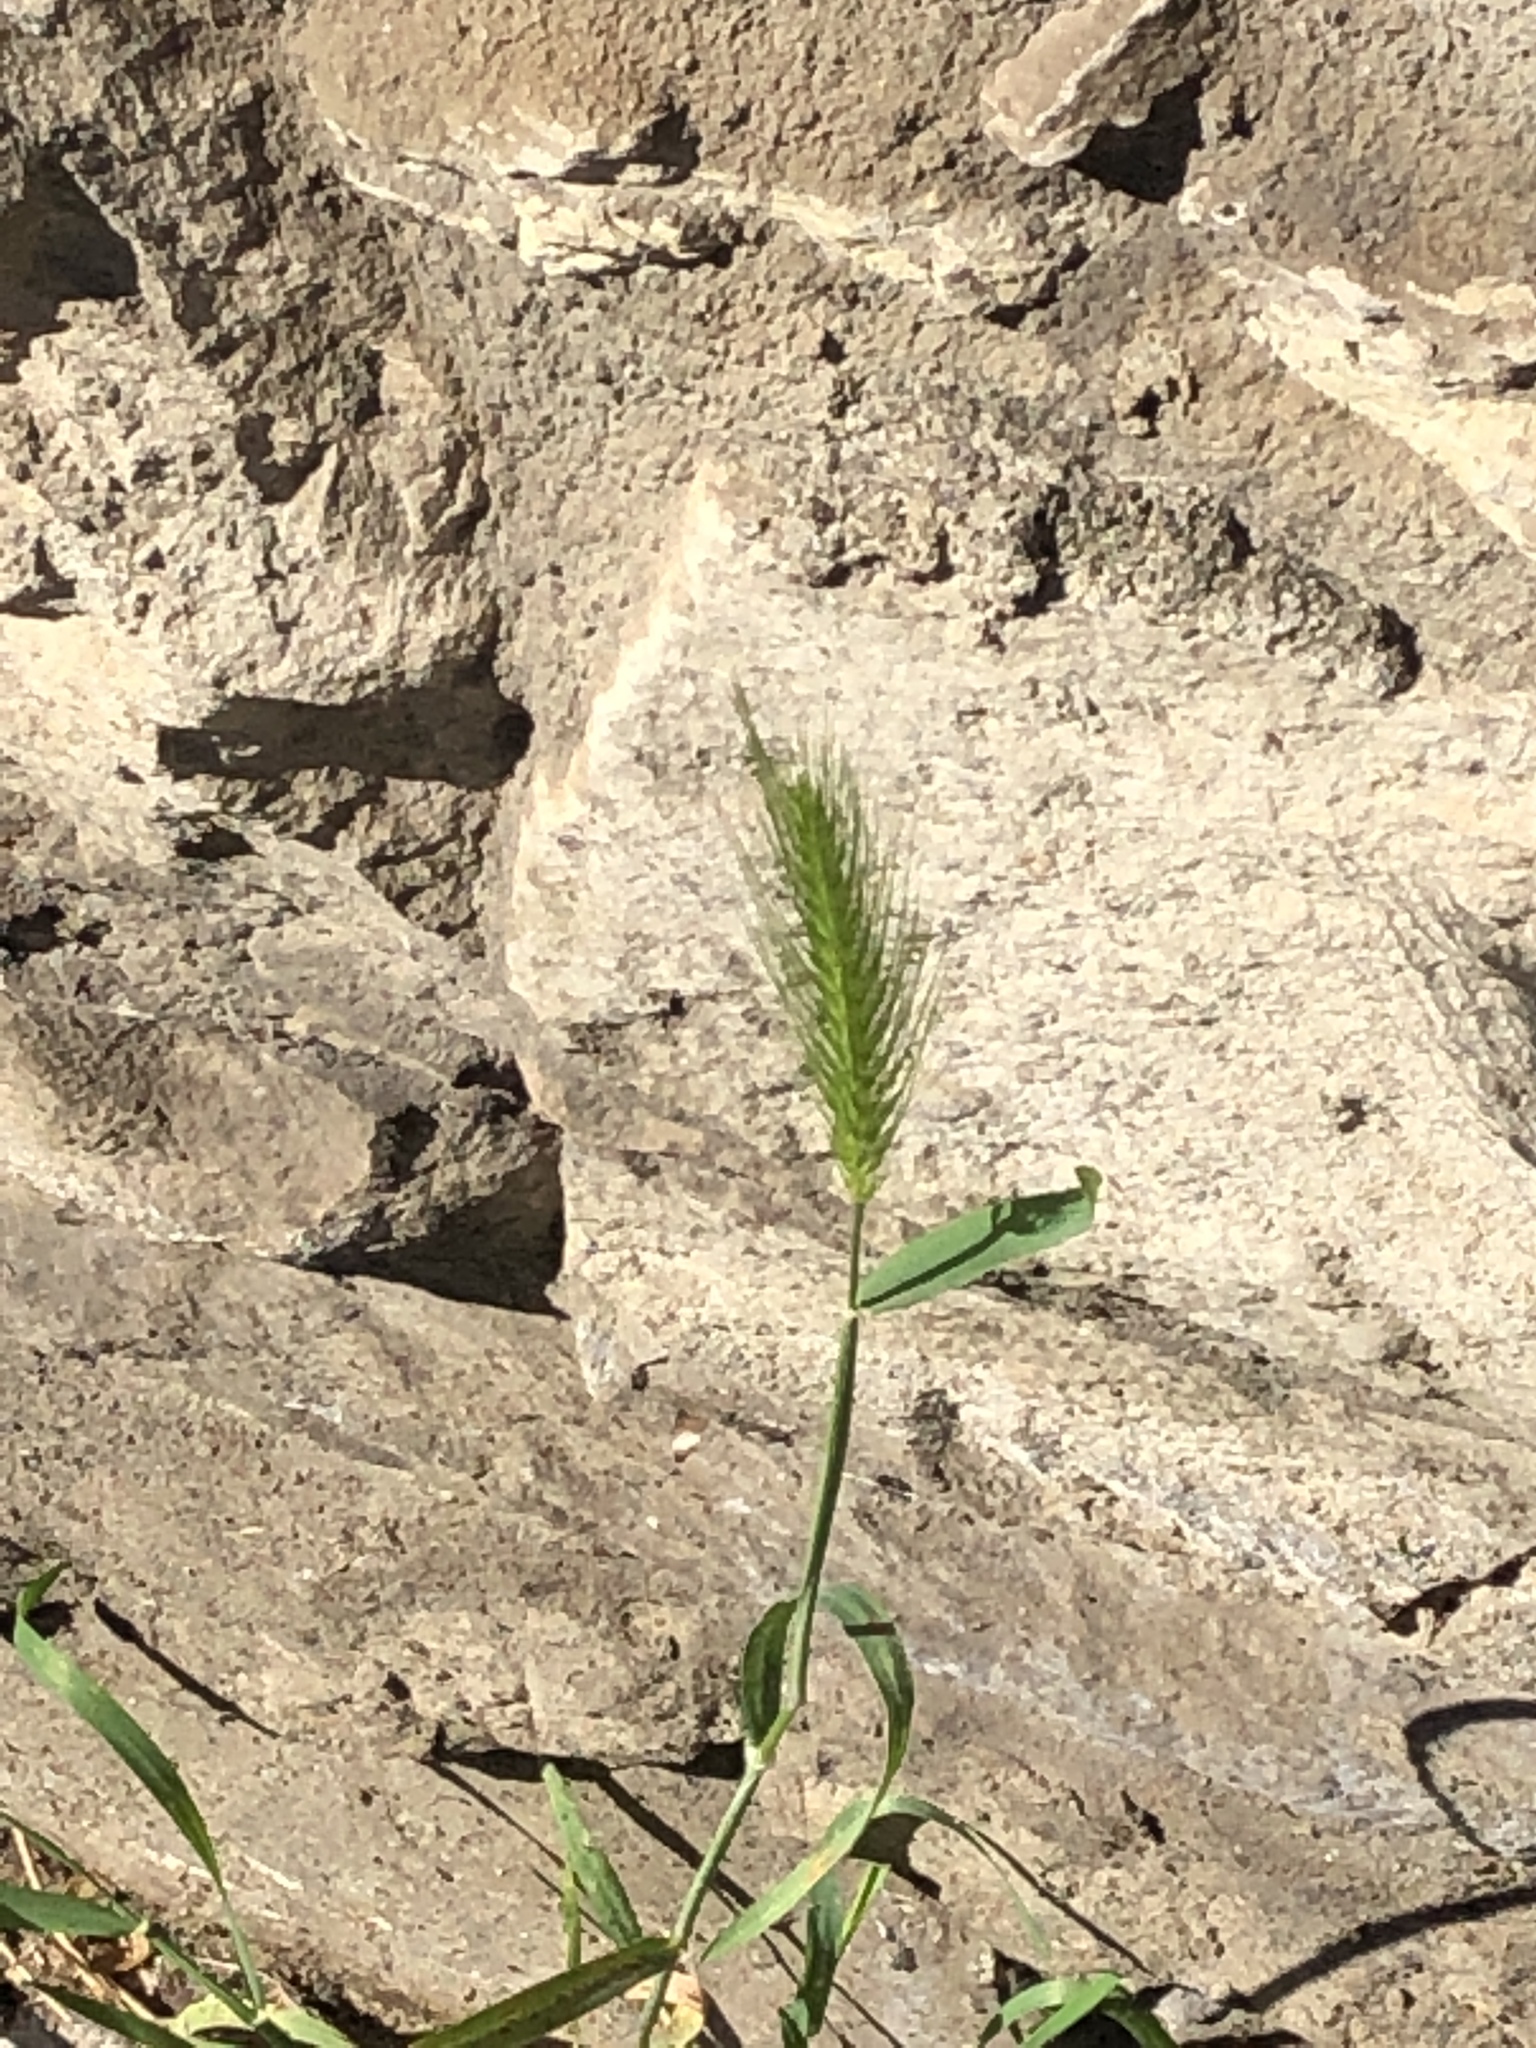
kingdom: Plantae
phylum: Tracheophyta
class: Liliopsida
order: Poales
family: Poaceae
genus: Hordeum
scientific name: Hordeum murinum
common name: Wall barley
